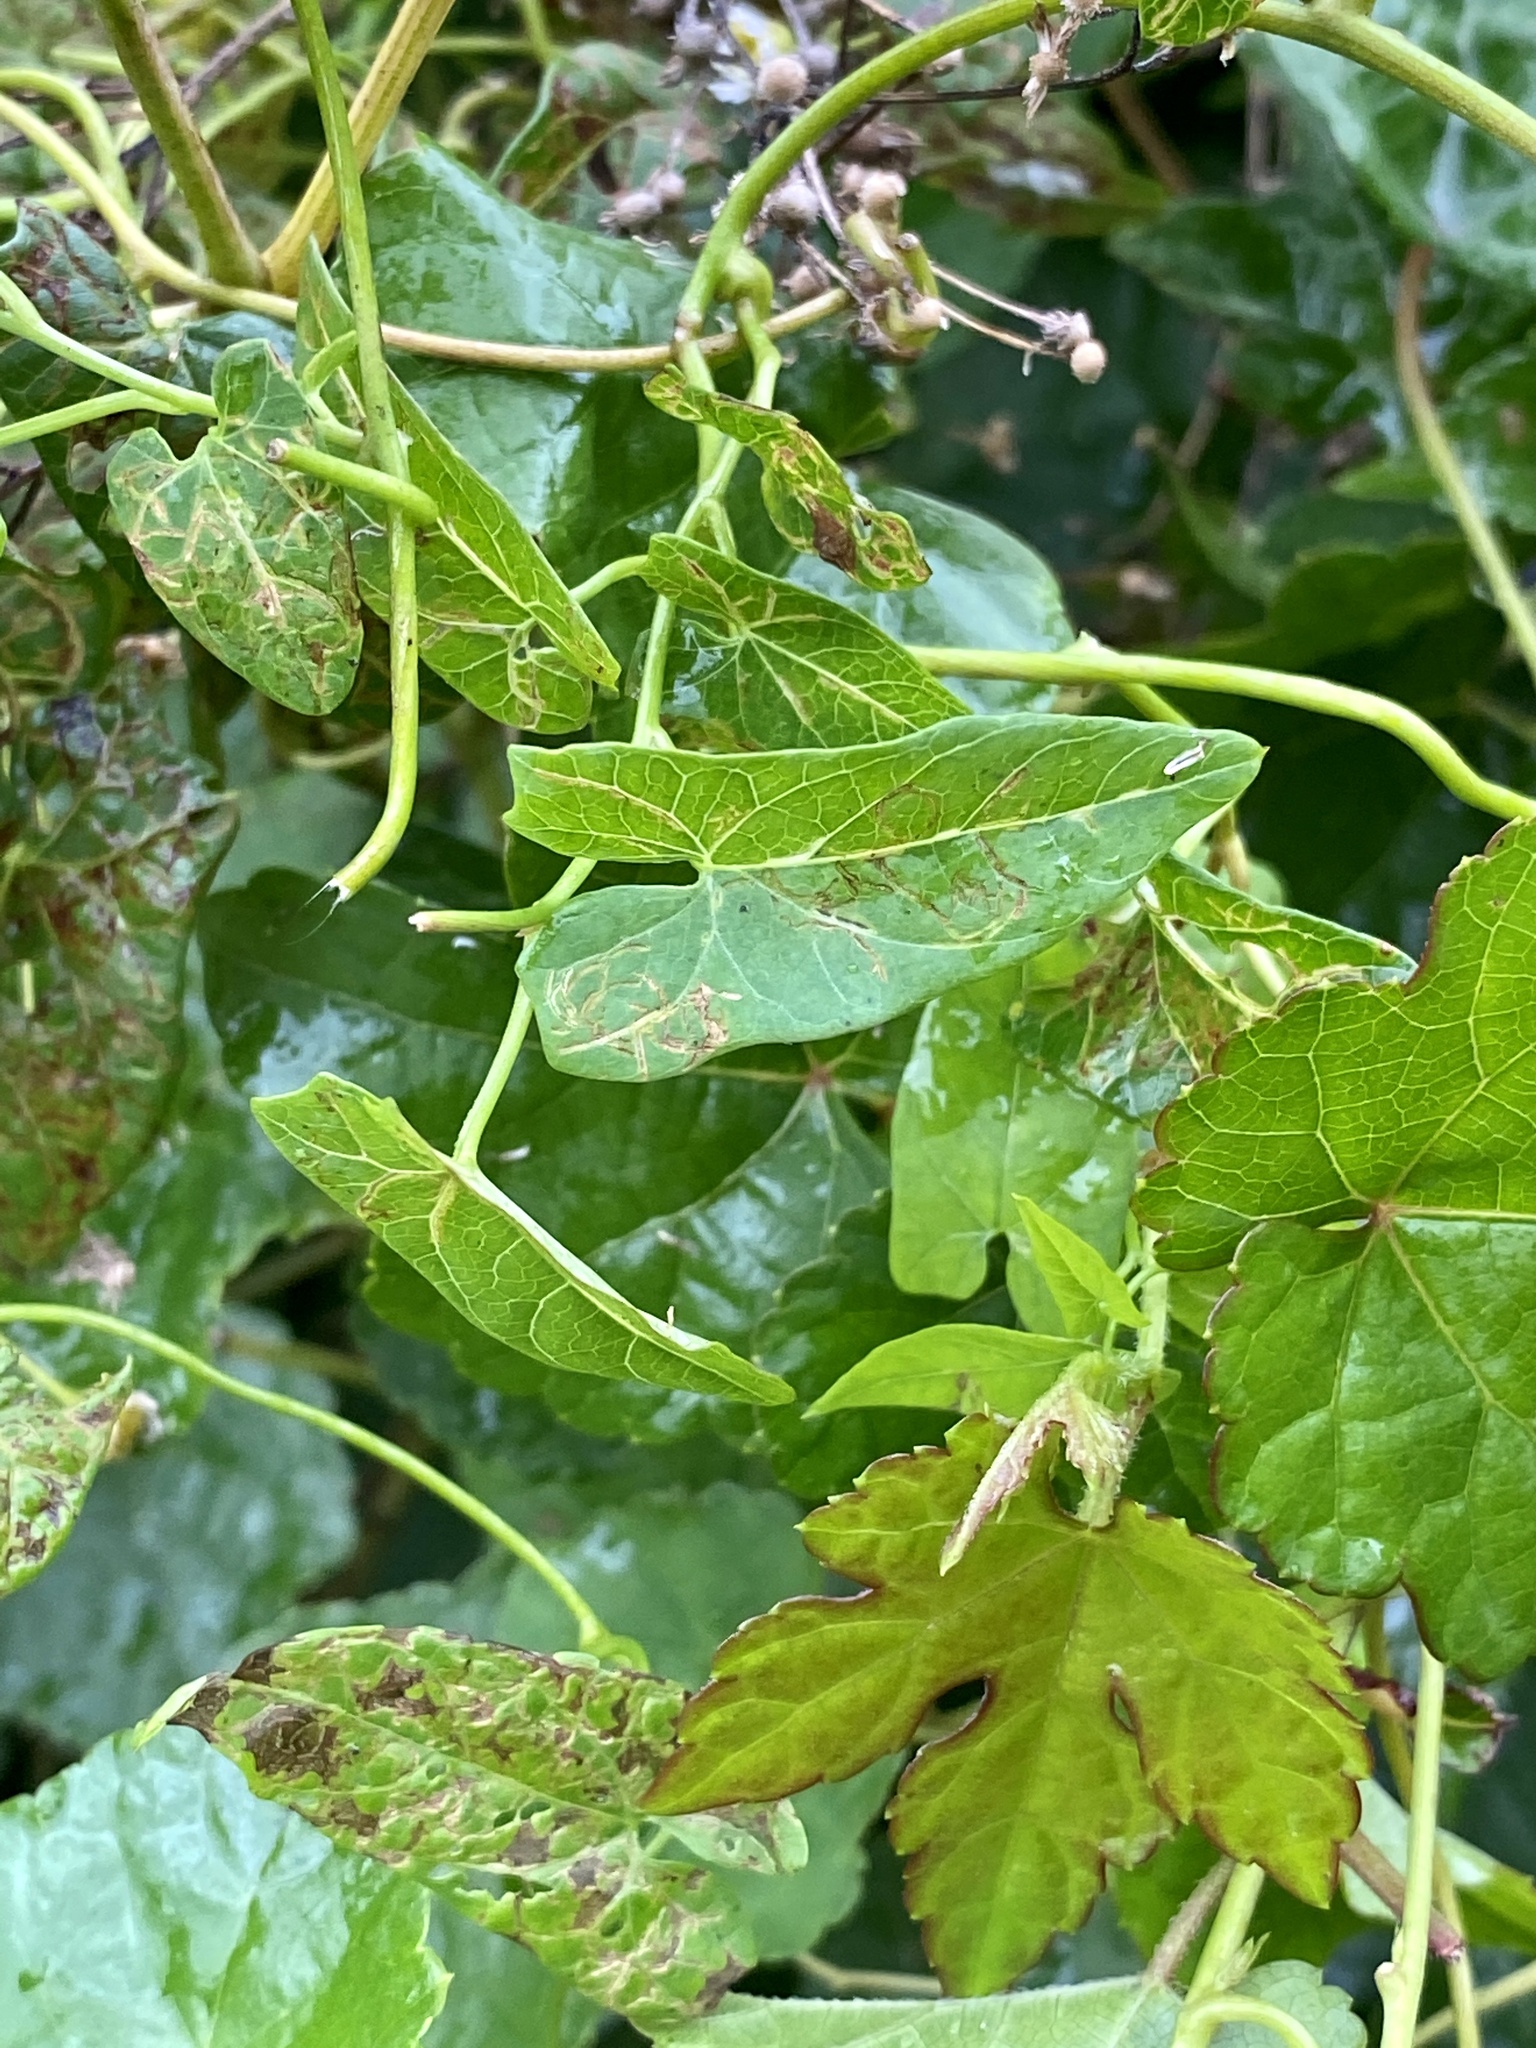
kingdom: Plantae
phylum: Tracheophyta
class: Magnoliopsida
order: Solanales
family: Convolvulaceae
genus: Calystegia
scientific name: Calystegia sepium
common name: Hedge bindweed
